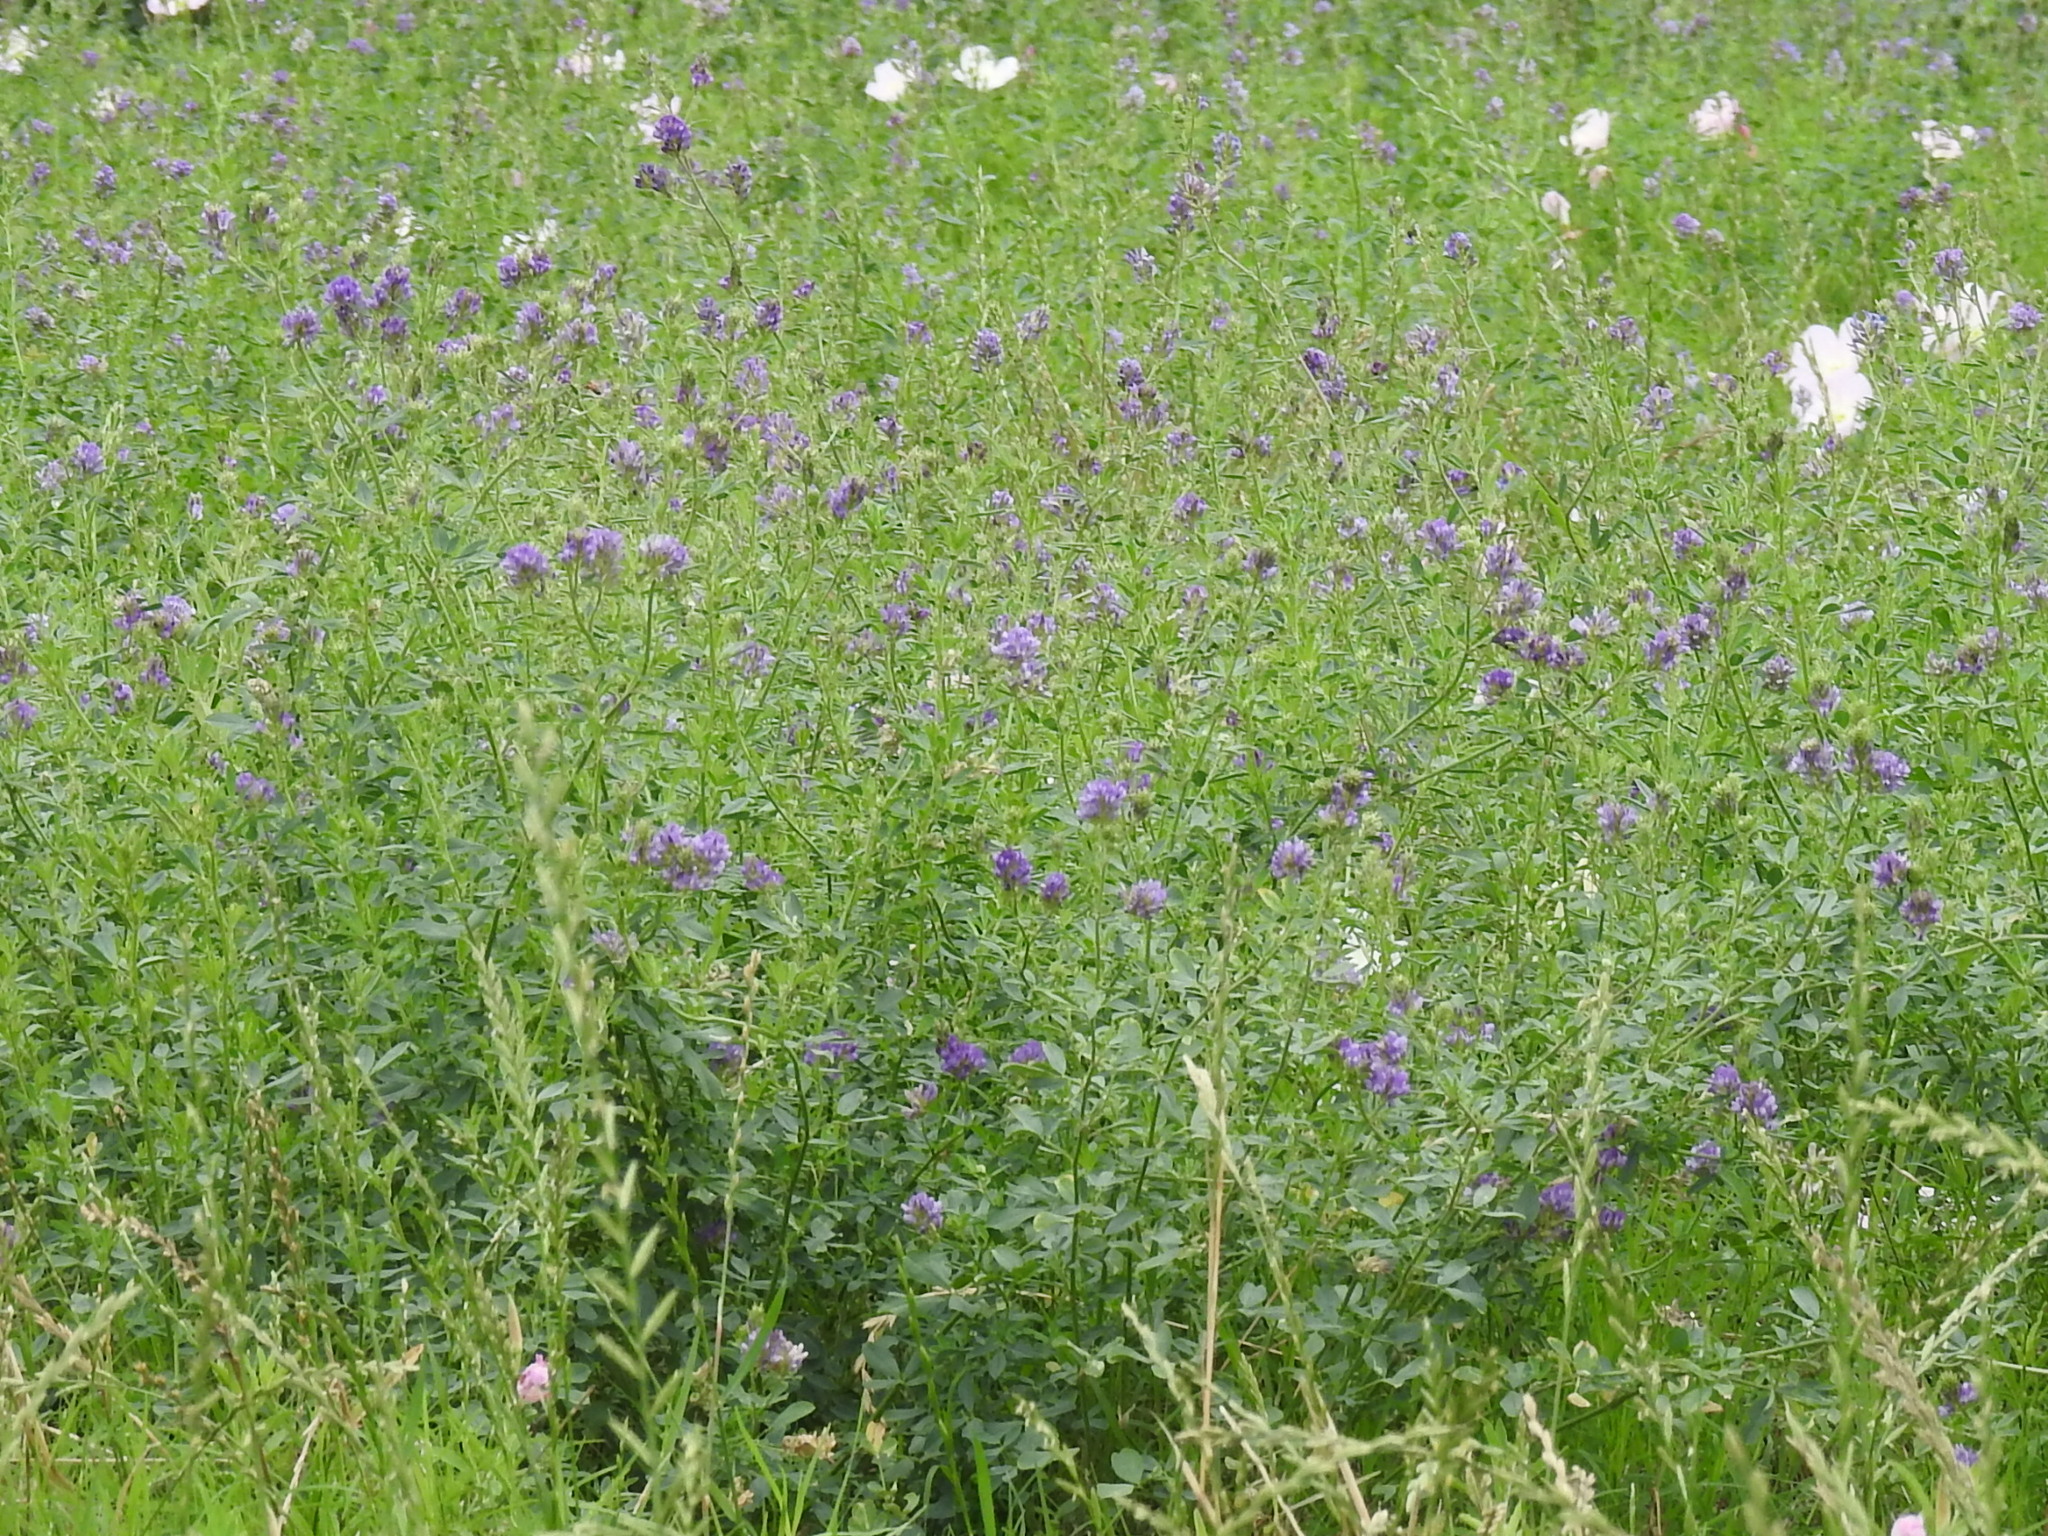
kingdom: Plantae
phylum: Tracheophyta
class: Magnoliopsida
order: Fabales
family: Fabaceae
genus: Medicago
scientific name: Medicago sativa
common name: Alfalfa
